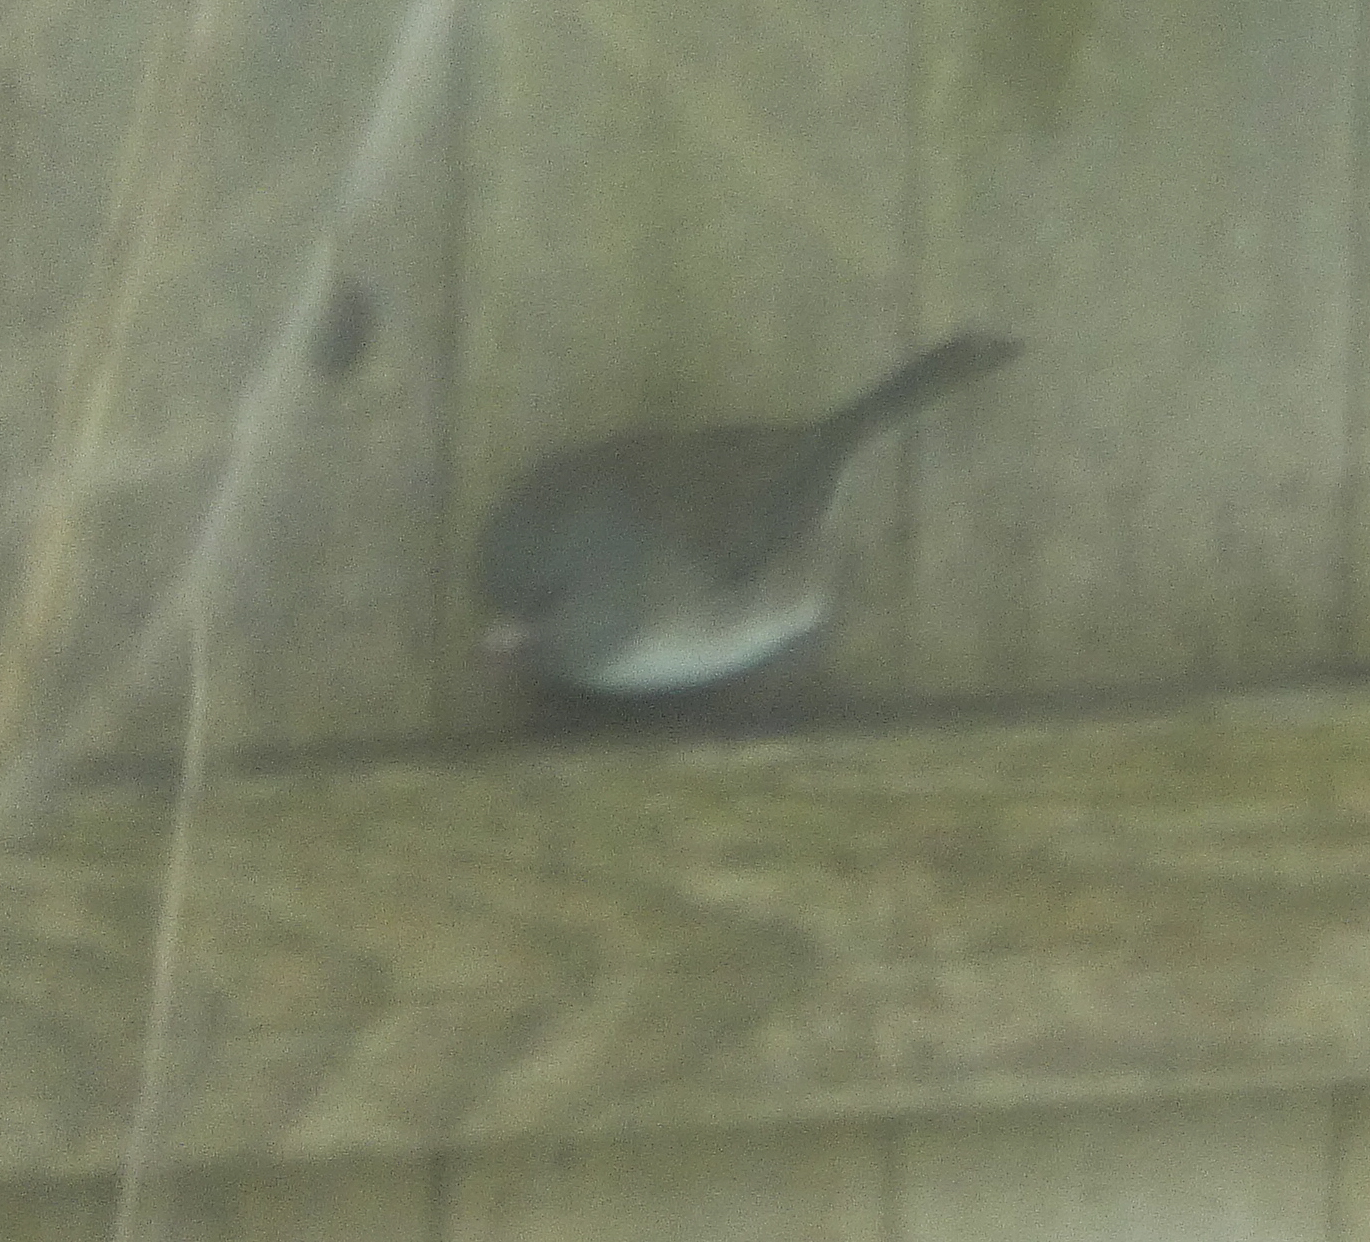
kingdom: Animalia
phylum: Chordata
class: Aves
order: Passeriformes
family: Passerellidae
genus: Junco
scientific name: Junco hyemalis
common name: Dark-eyed junco
